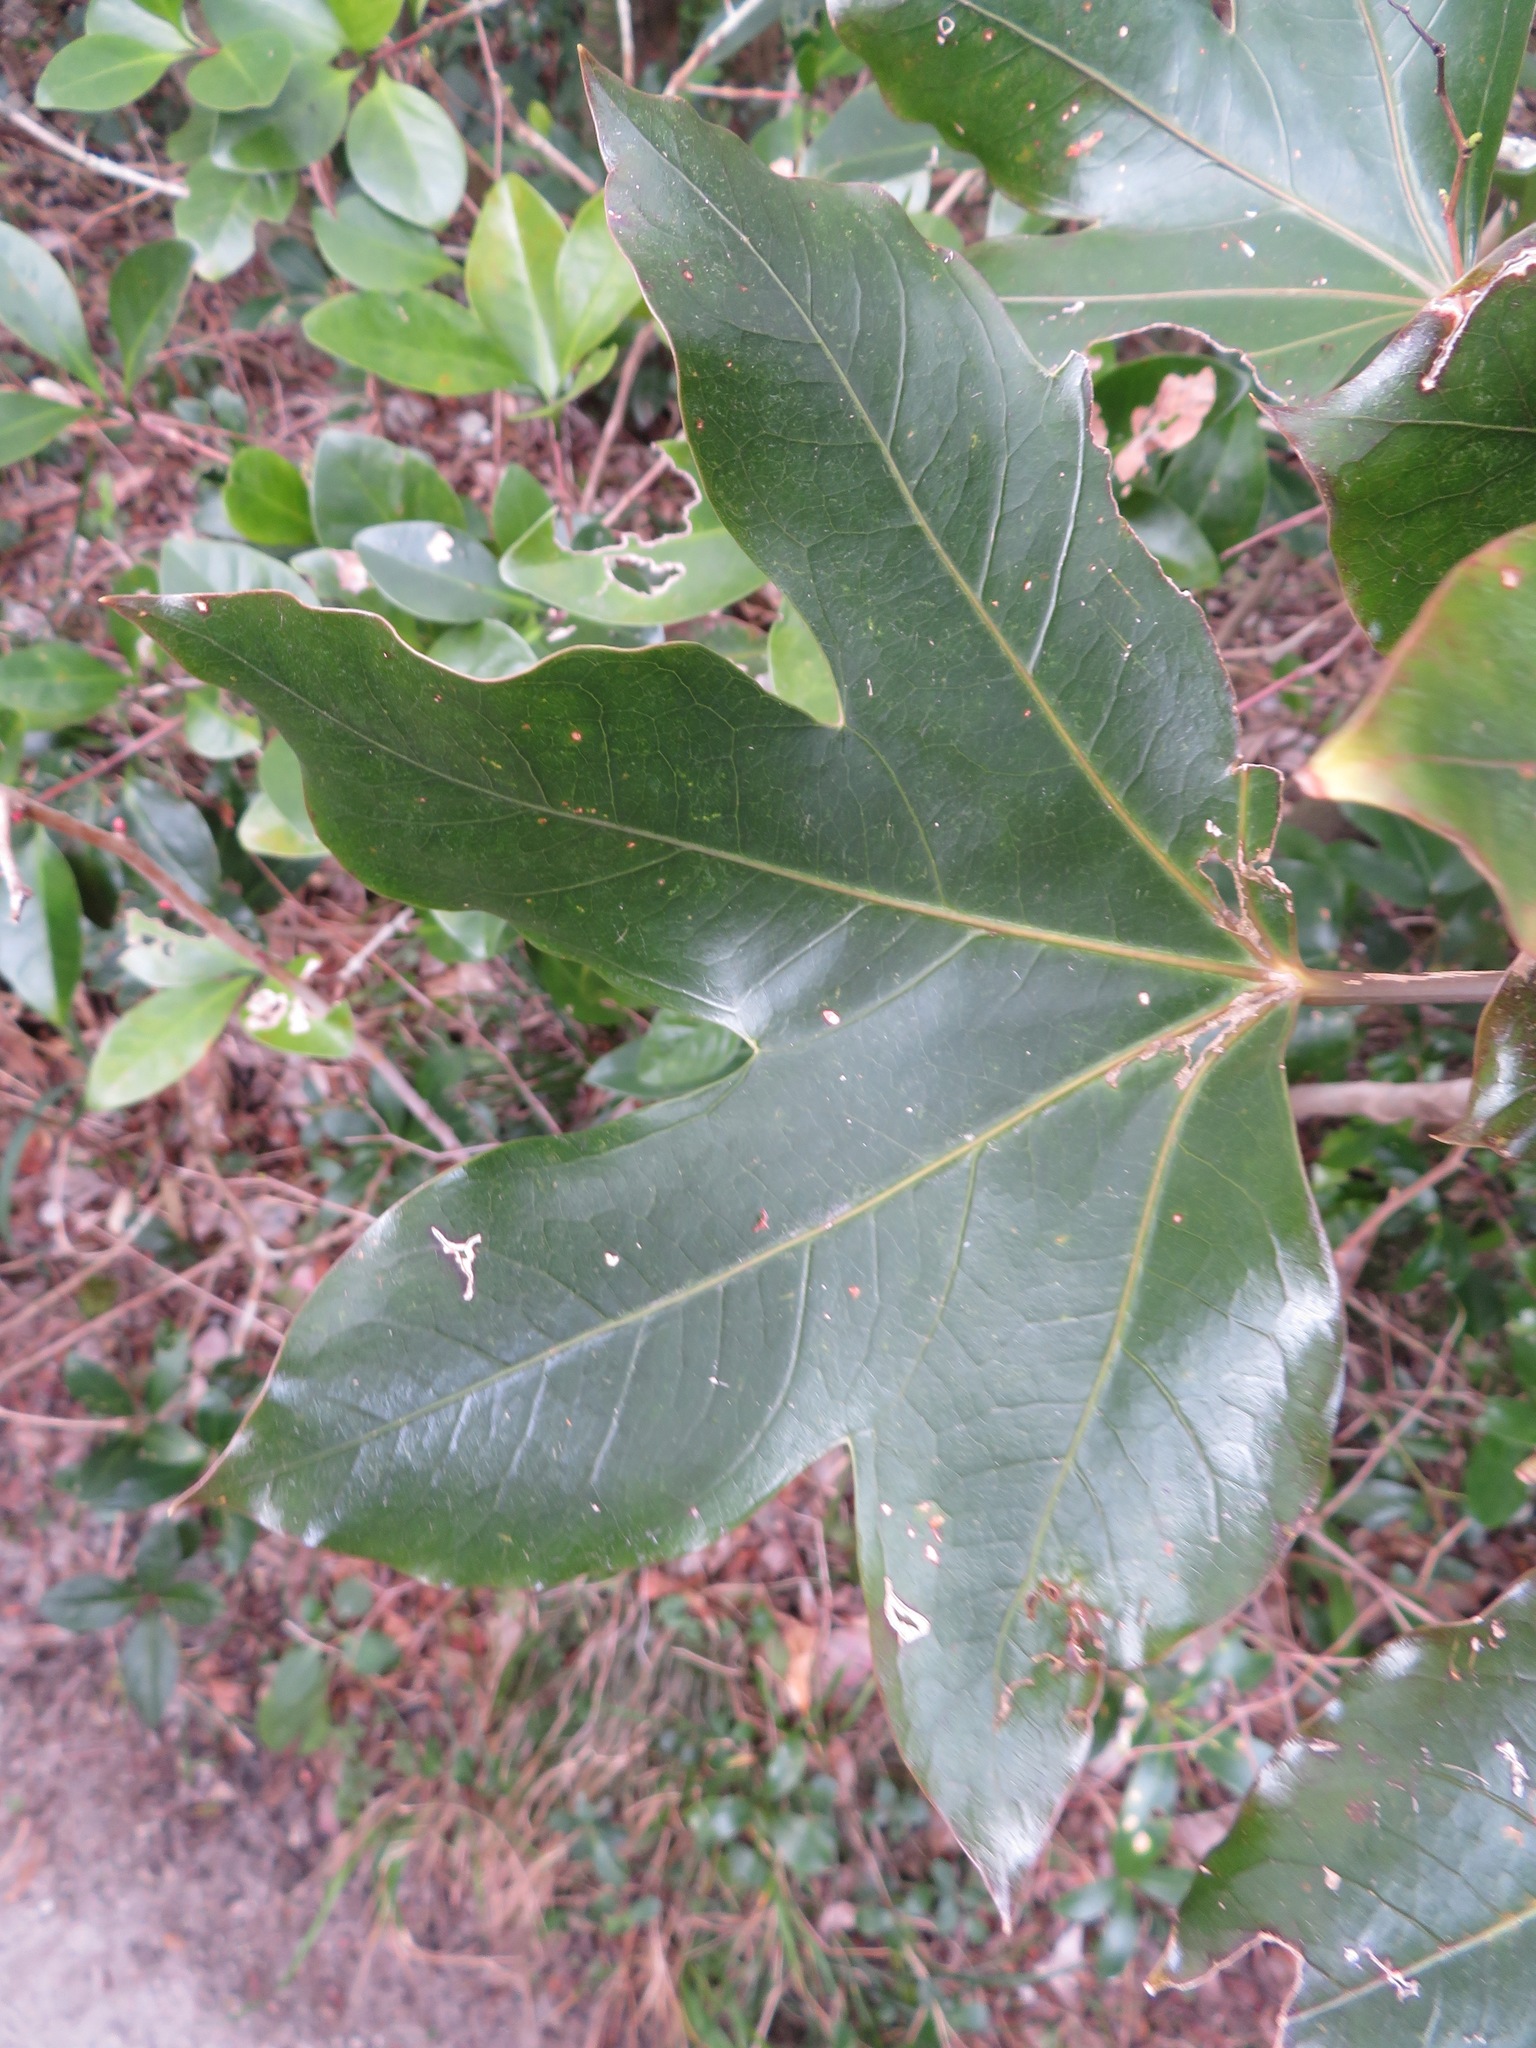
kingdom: Plantae
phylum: Tracheophyta
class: Magnoliopsida
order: Apiales
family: Araliaceae
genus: Dendropanax
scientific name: Dendropanax trifidus
